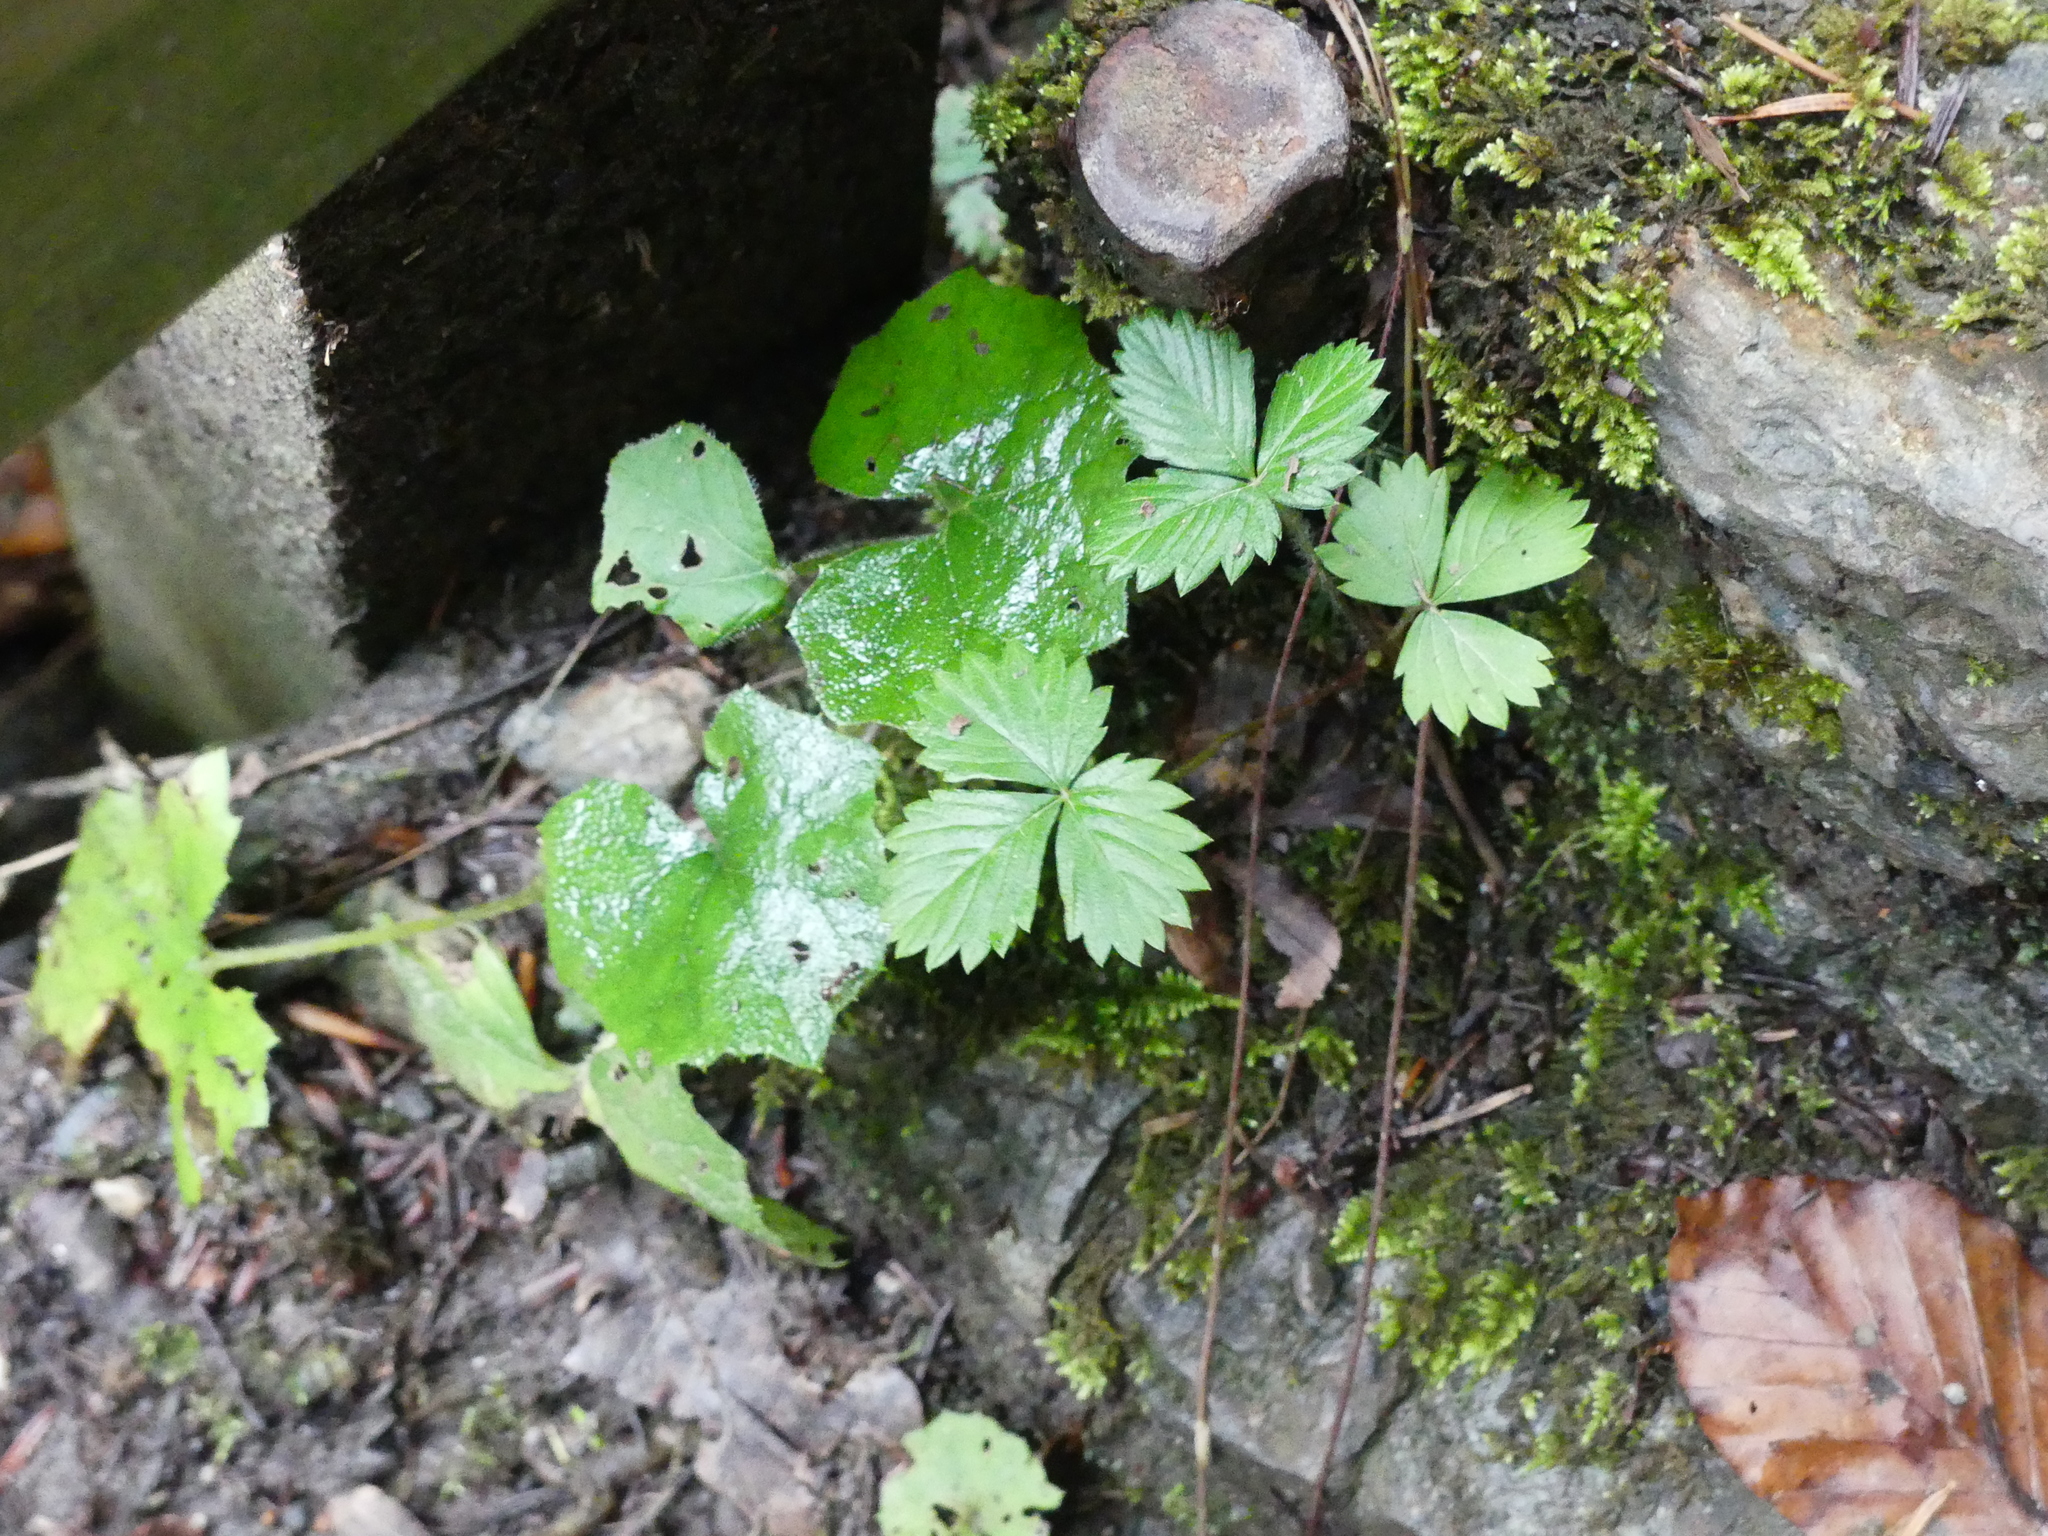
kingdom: Plantae
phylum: Tracheophyta
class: Magnoliopsida
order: Rosales
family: Rosaceae
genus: Fragaria
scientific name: Fragaria vesca
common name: Wild strawberry
